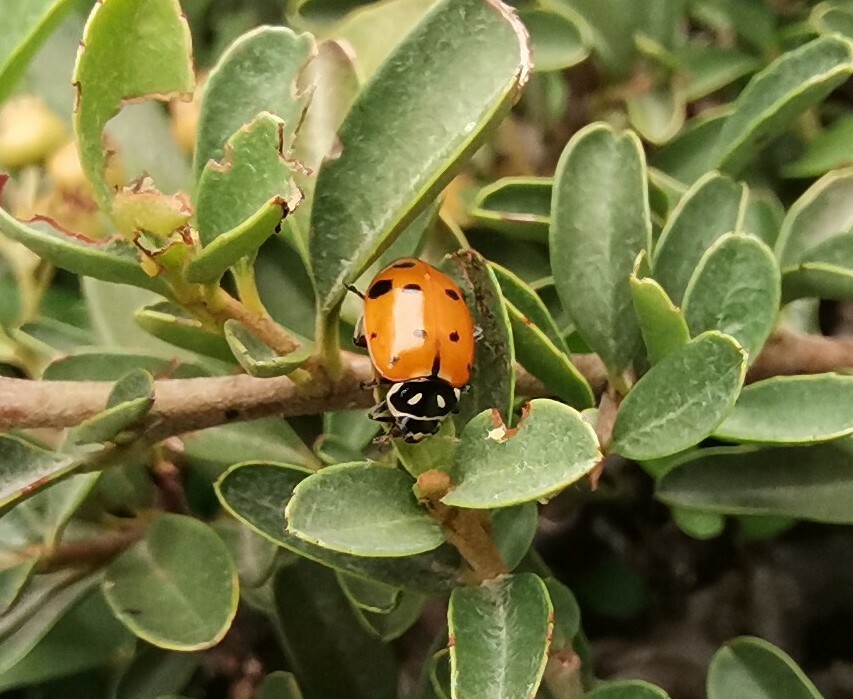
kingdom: Animalia
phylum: Arthropoda
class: Insecta
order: Coleoptera
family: Coccinellidae
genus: Hippodamia
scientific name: Hippodamia convergens
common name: Convergent lady beetle
